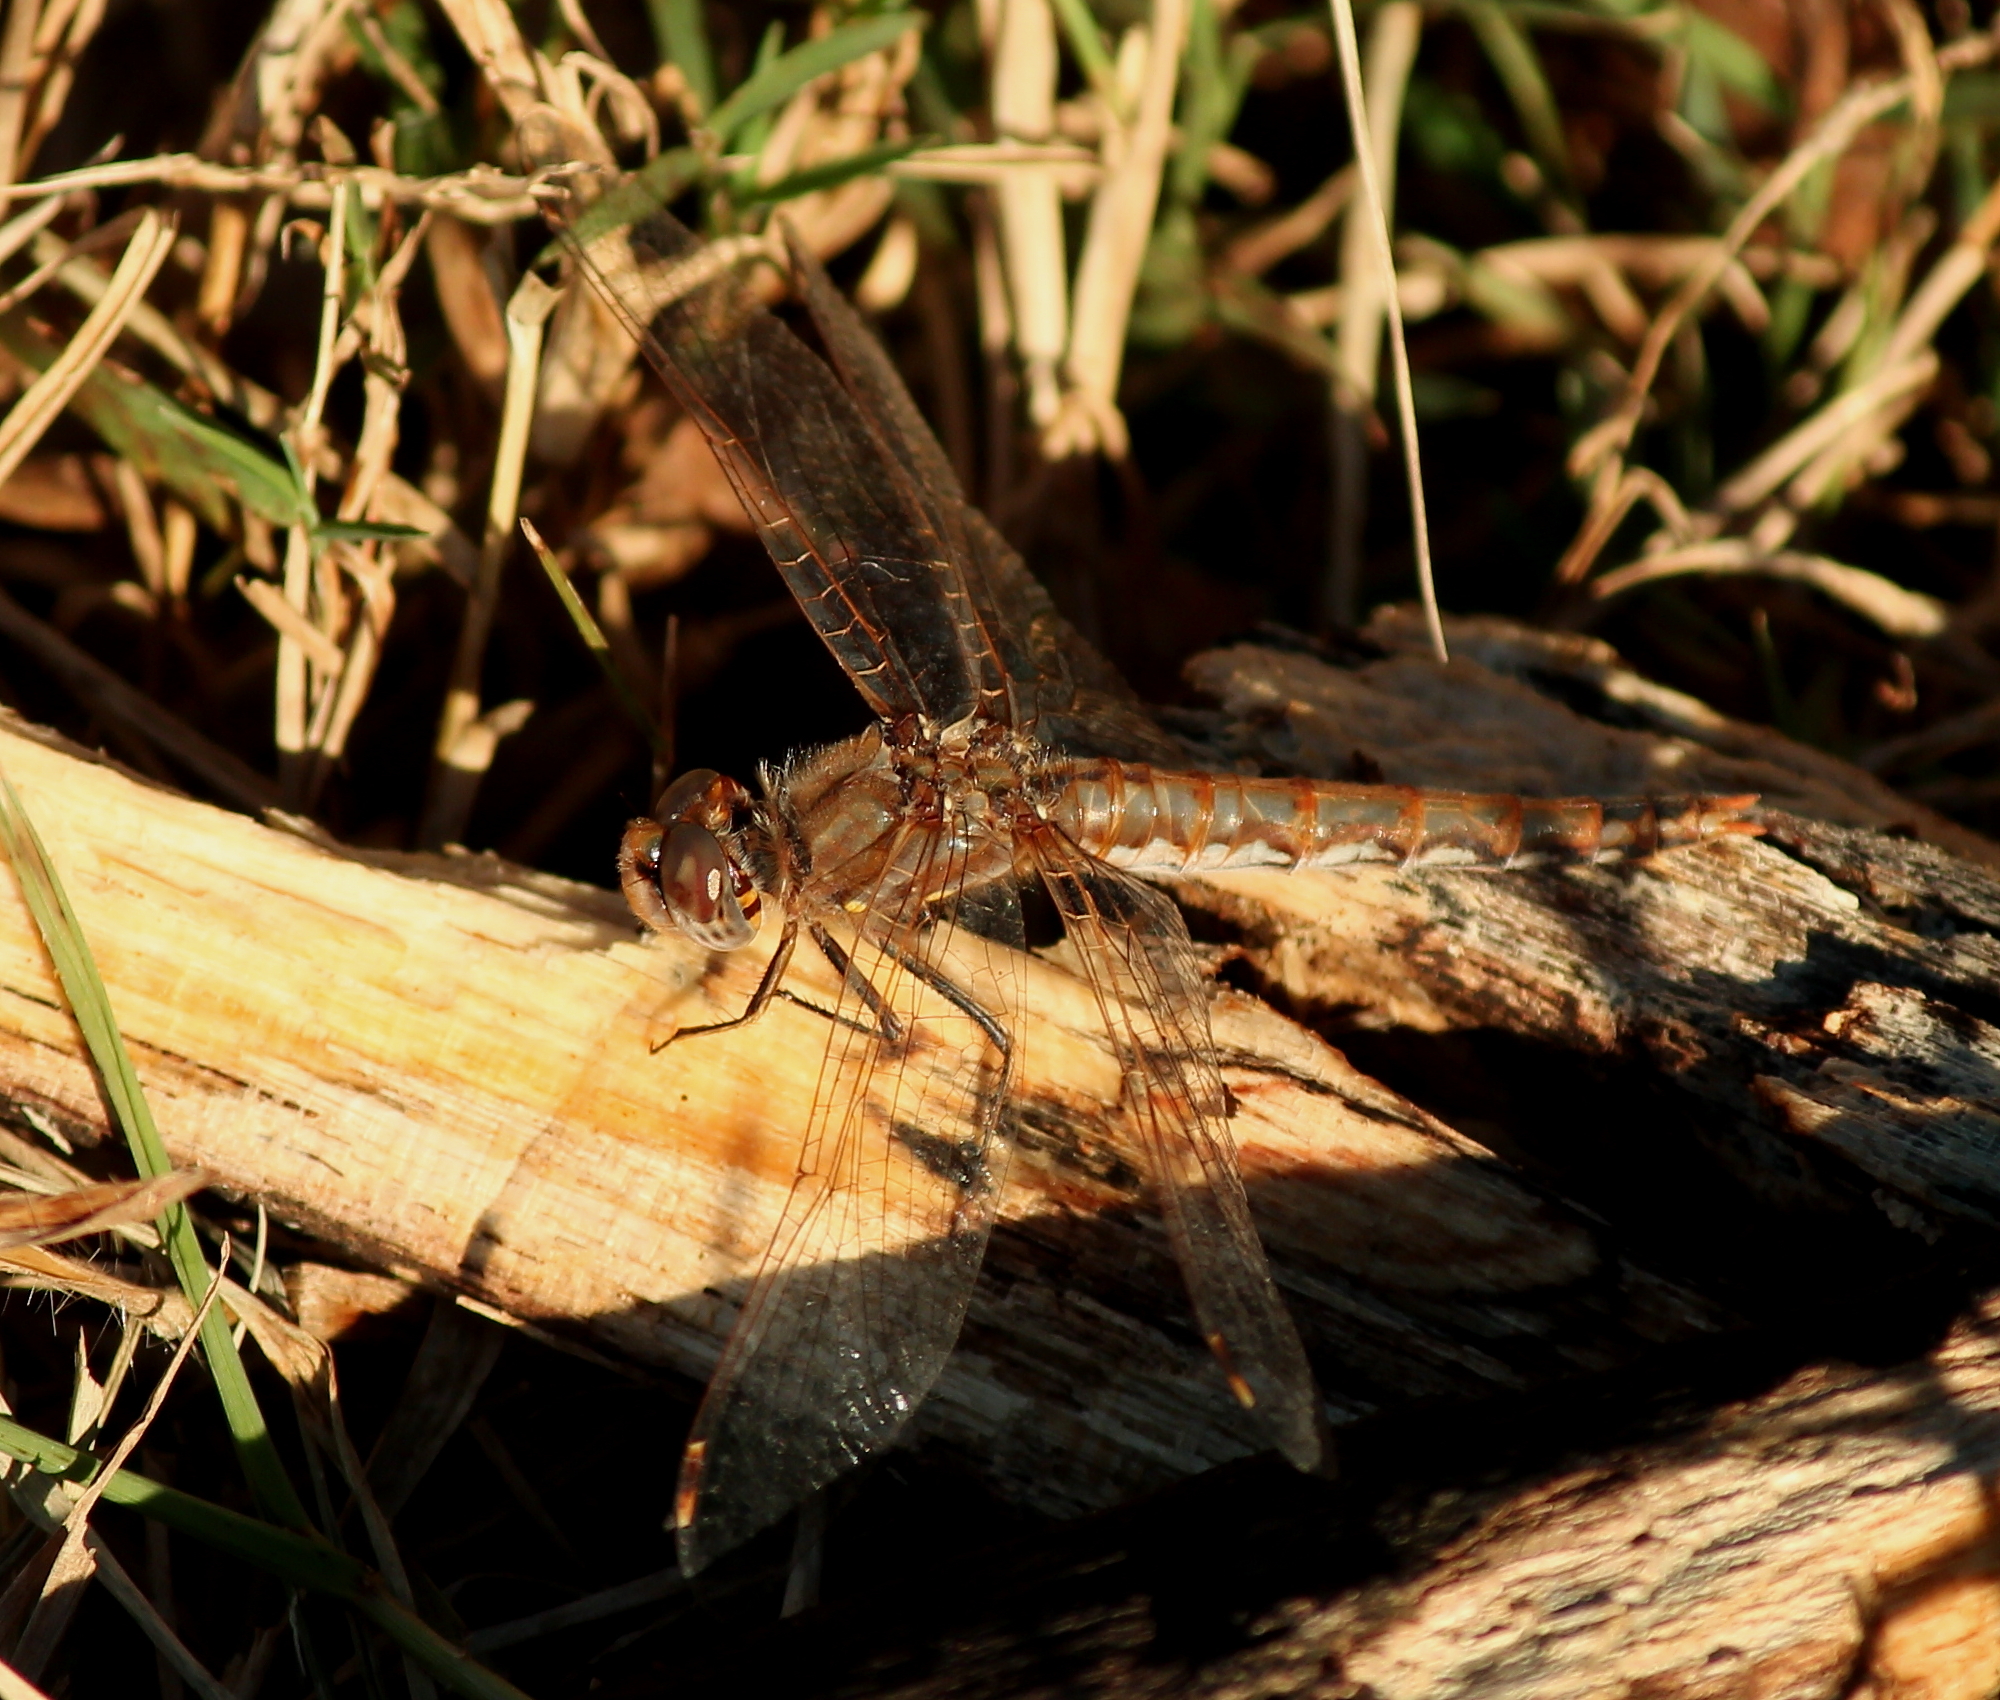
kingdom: Animalia
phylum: Arthropoda
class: Insecta
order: Odonata
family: Libellulidae
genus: Sympetrum
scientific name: Sympetrum corruptum
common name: Variegated meadowhawk
